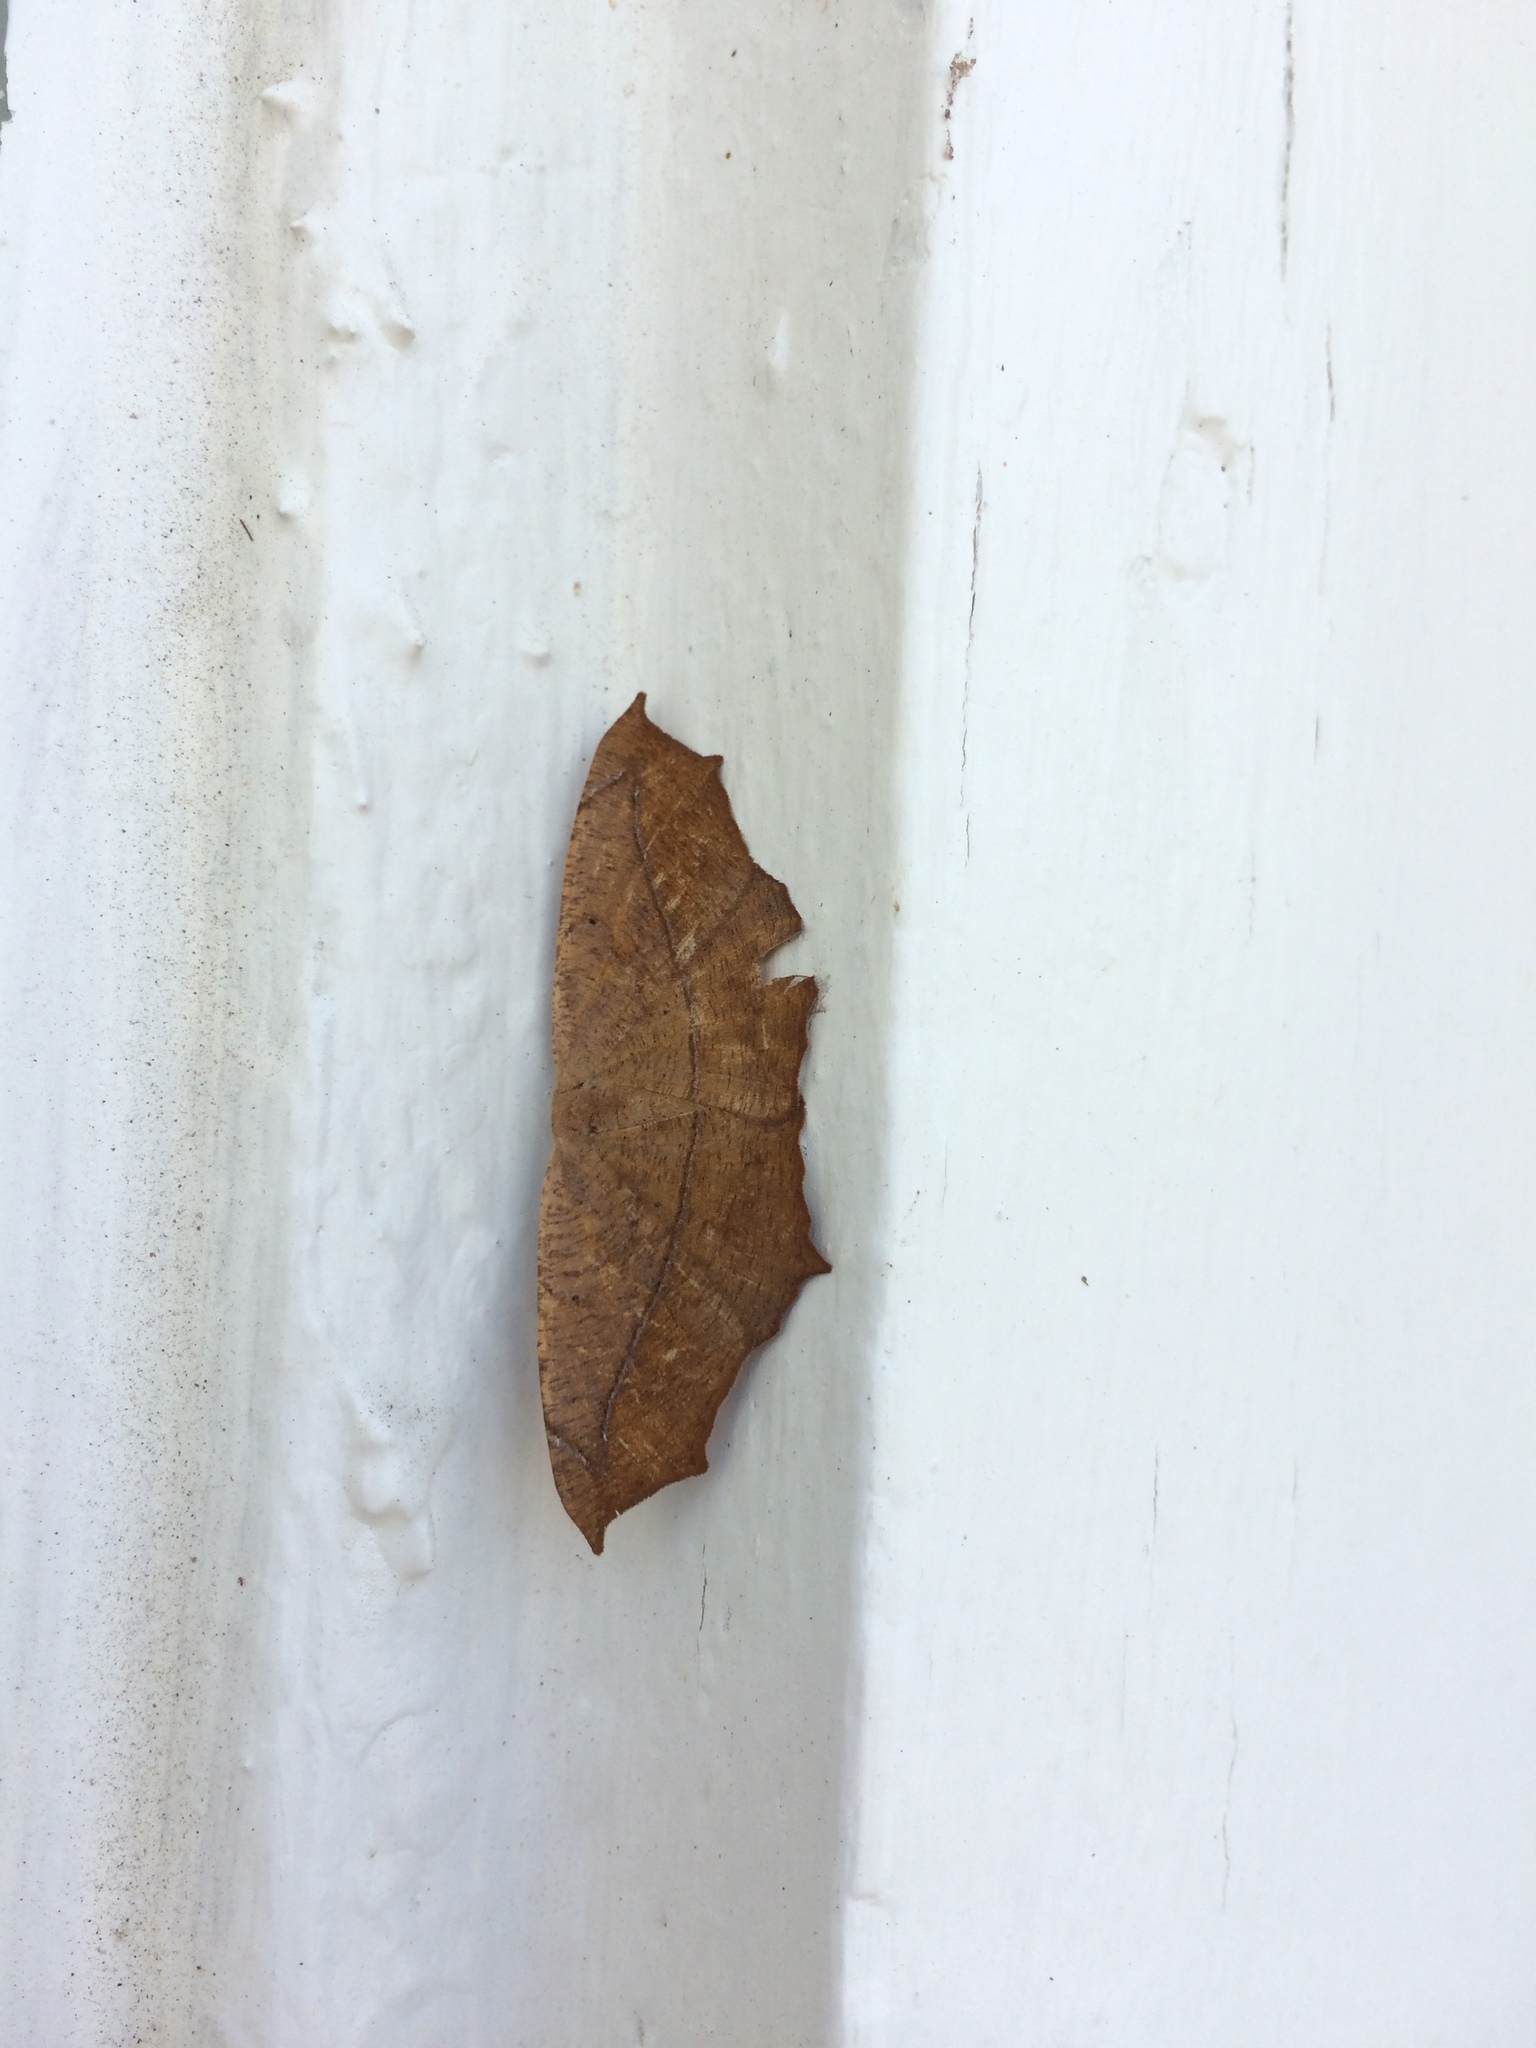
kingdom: Animalia
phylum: Arthropoda
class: Insecta
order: Lepidoptera
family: Geometridae
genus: Prochoerodes
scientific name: Prochoerodes lineola
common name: Large maple spanworm
